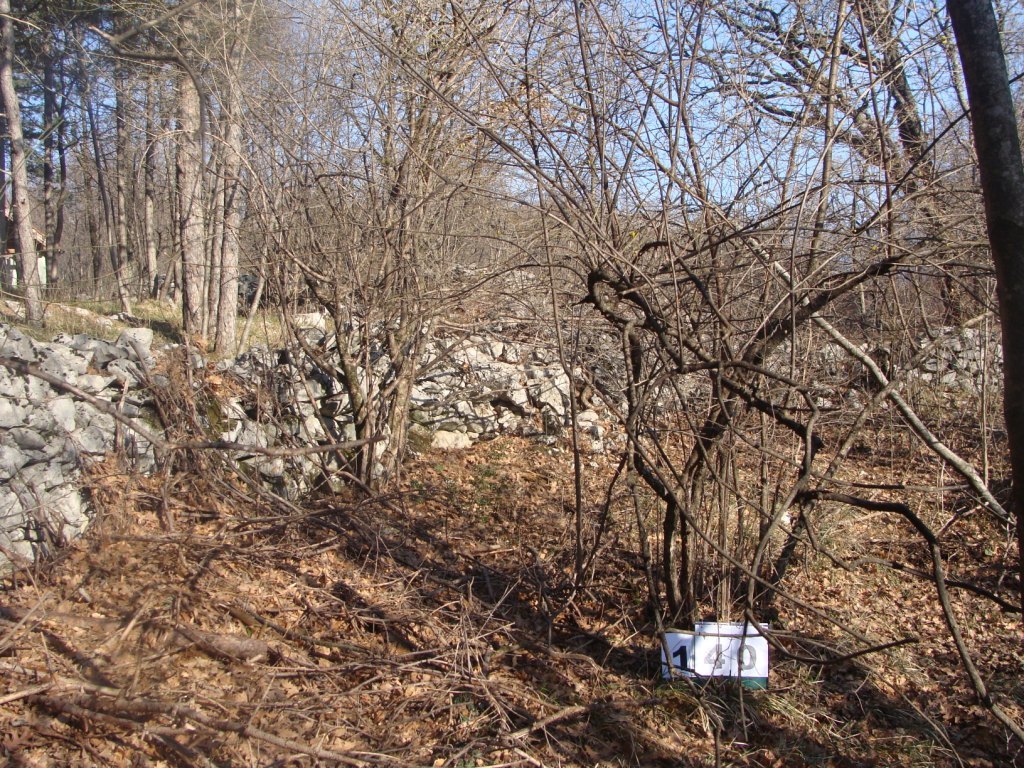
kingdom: Plantae
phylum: Tracheophyta
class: Magnoliopsida
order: Cornales
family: Cornaceae
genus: Cornus
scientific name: Cornus mas
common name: Cornelian-cherry
